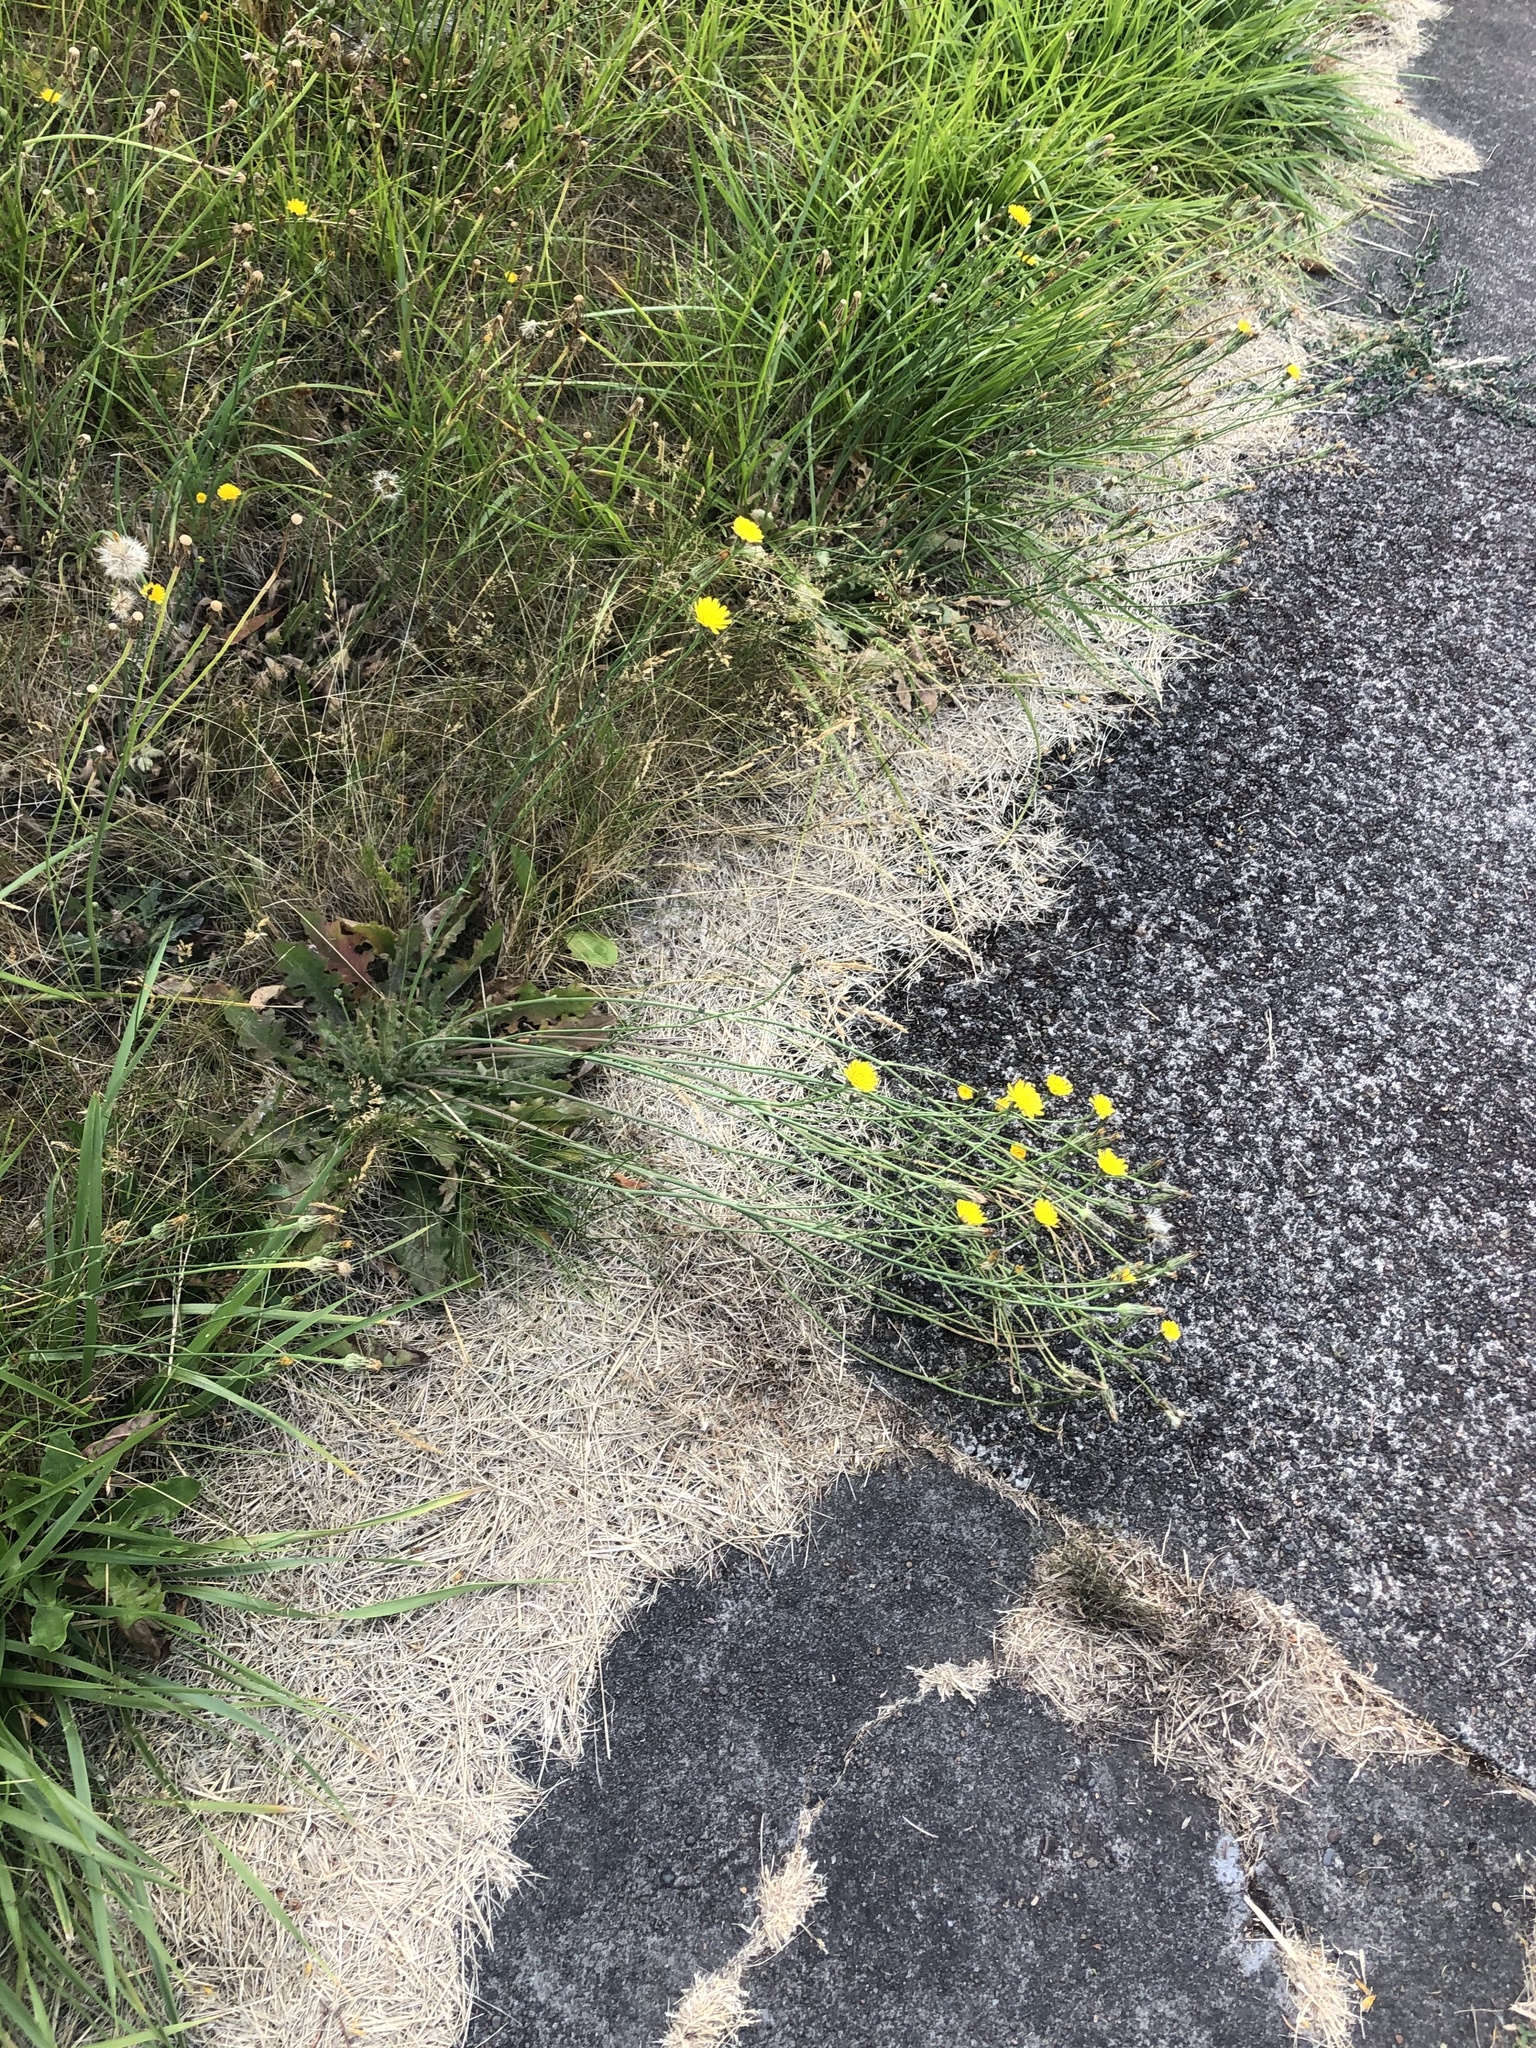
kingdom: Plantae
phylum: Tracheophyta
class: Magnoliopsida
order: Asterales
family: Asteraceae
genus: Hypochaeris
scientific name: Hypochaeris radicata
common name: Flatweed
